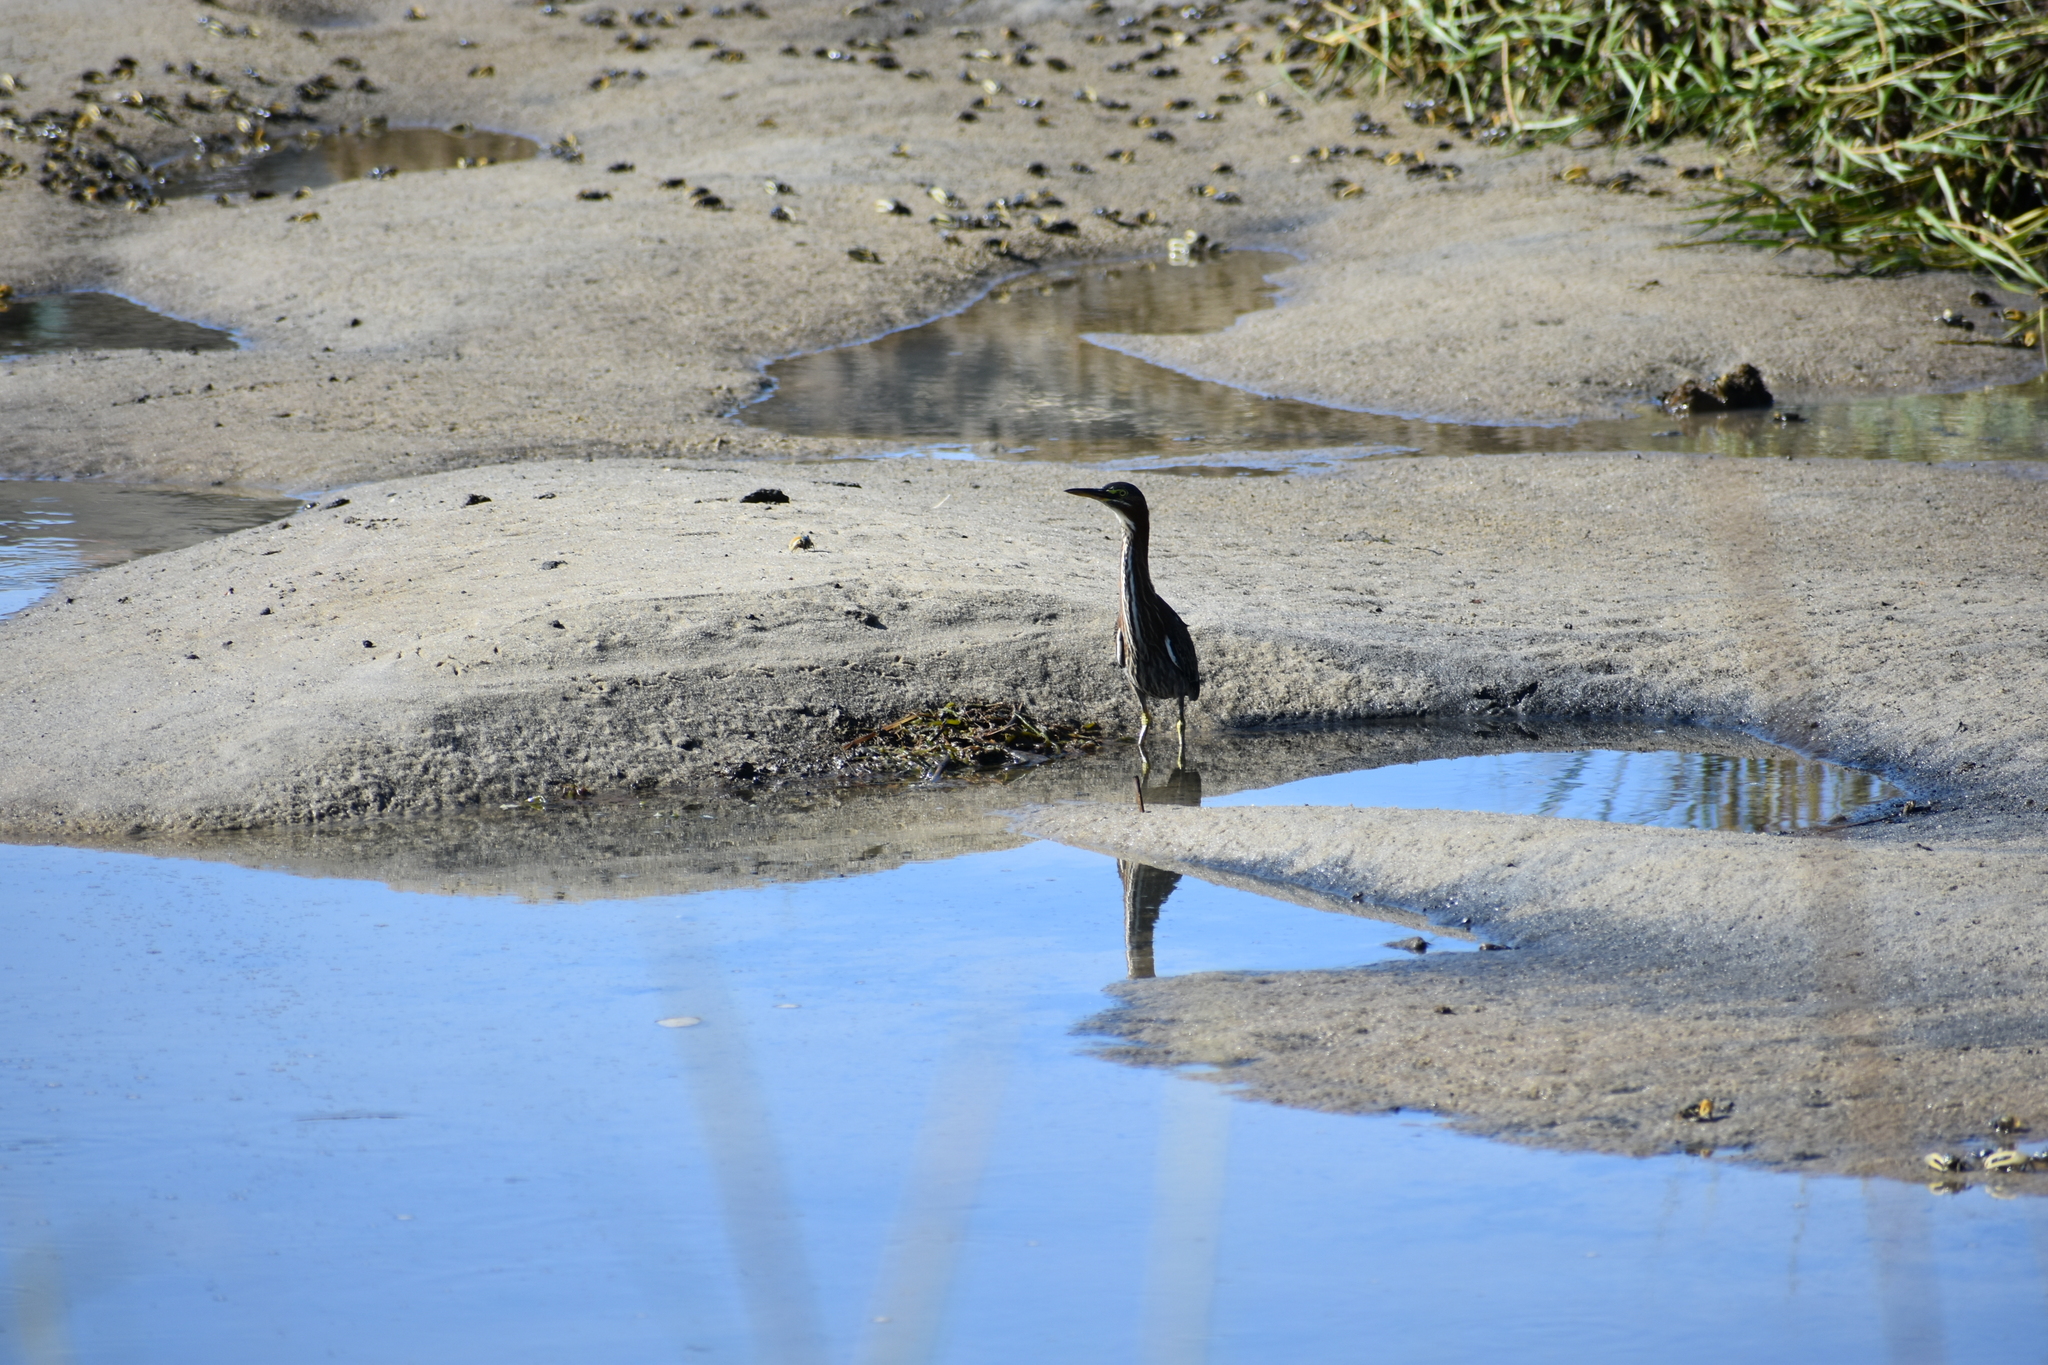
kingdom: Animalia
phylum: Chordata
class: Aves
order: Pelecaniformes
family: Ardeidae
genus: Butorides
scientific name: Butorides virescens
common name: Green heron
